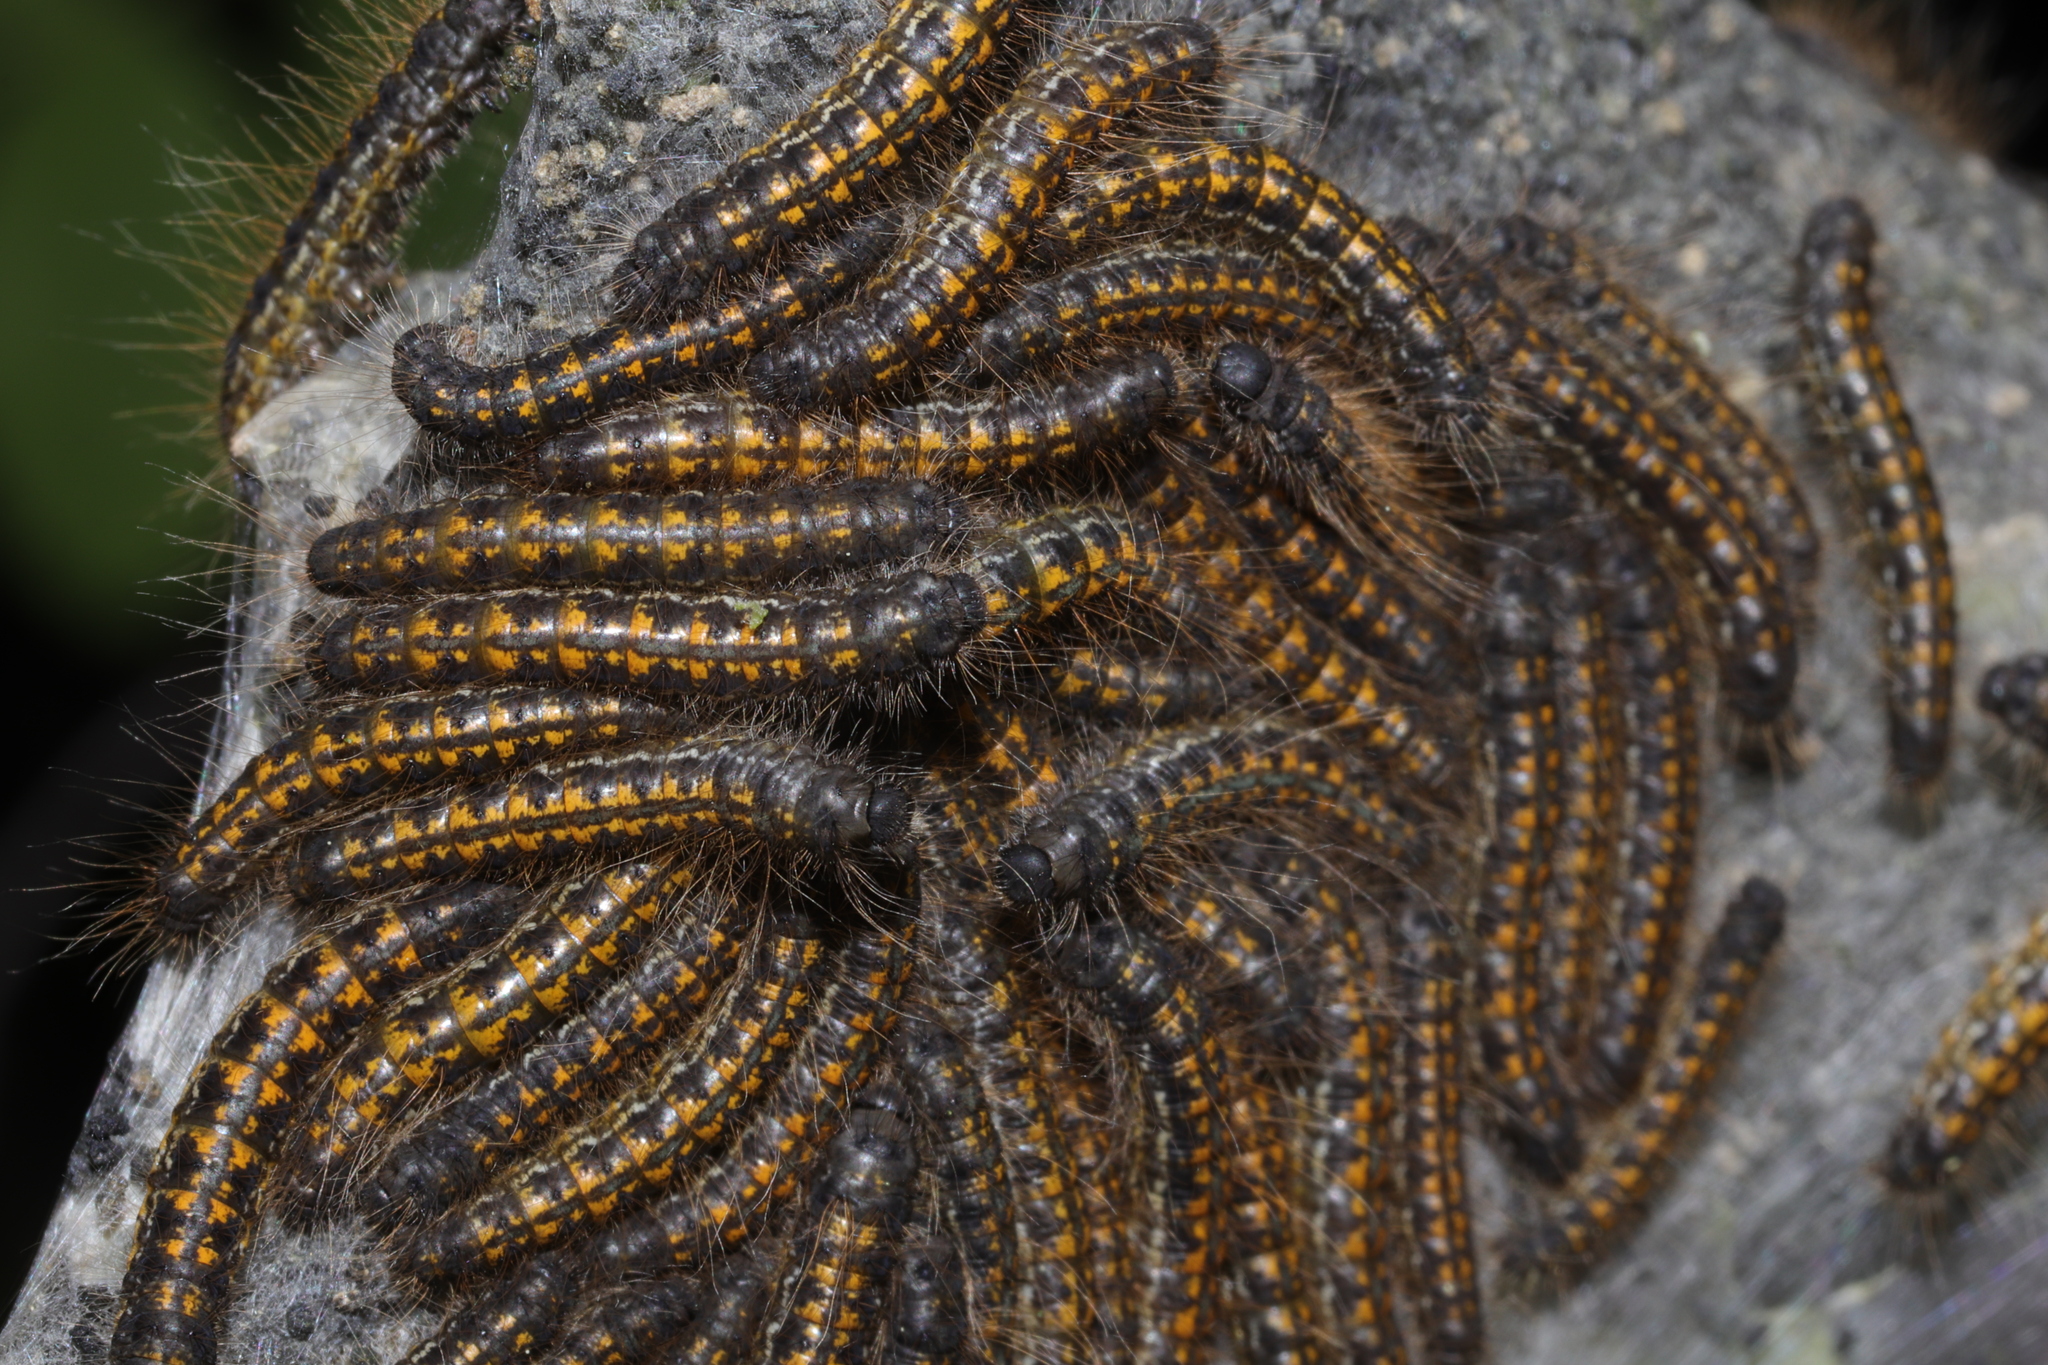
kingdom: Animalia
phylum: Arthropoda
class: Insecta
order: Lepidoptera
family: Lasiocampidae
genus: Malacosoma
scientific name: Malacosoma californica
